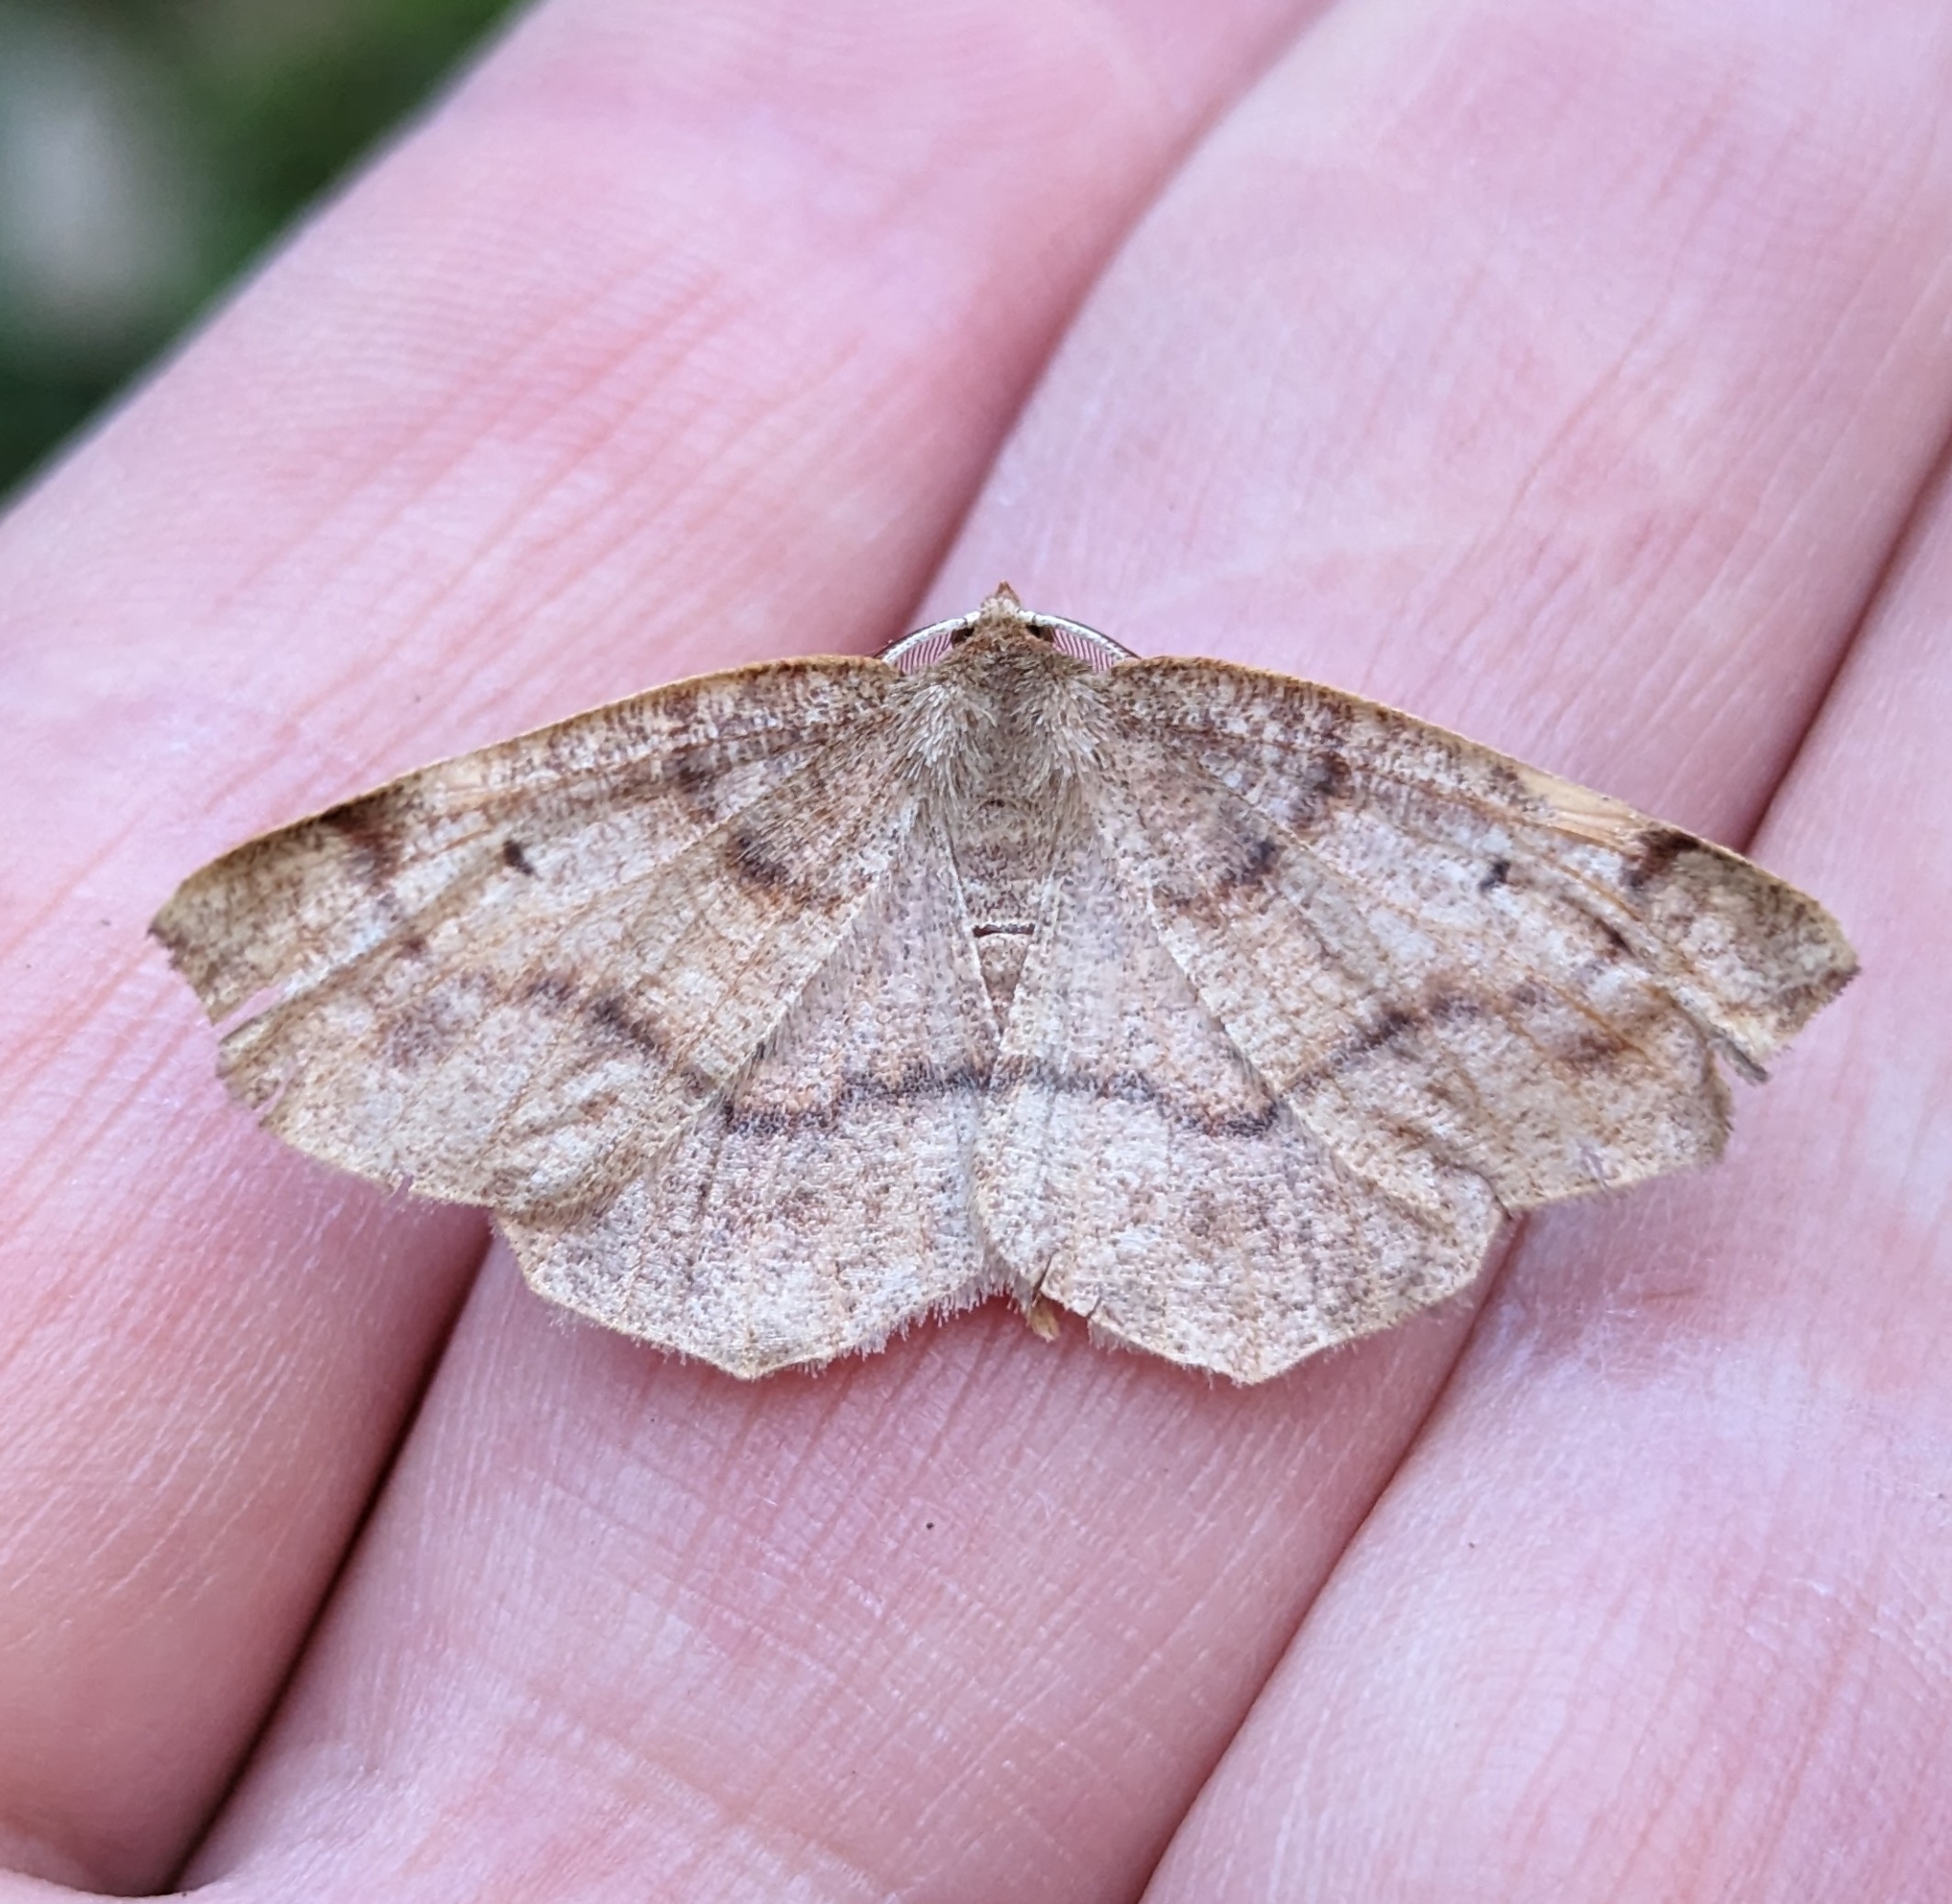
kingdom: Animalia
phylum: Arthropoda
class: Insecta
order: Lepidoptera
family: Geometridae
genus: Metarranthis
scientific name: Metarranthis duaria
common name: Ruddy metarranthis moth
